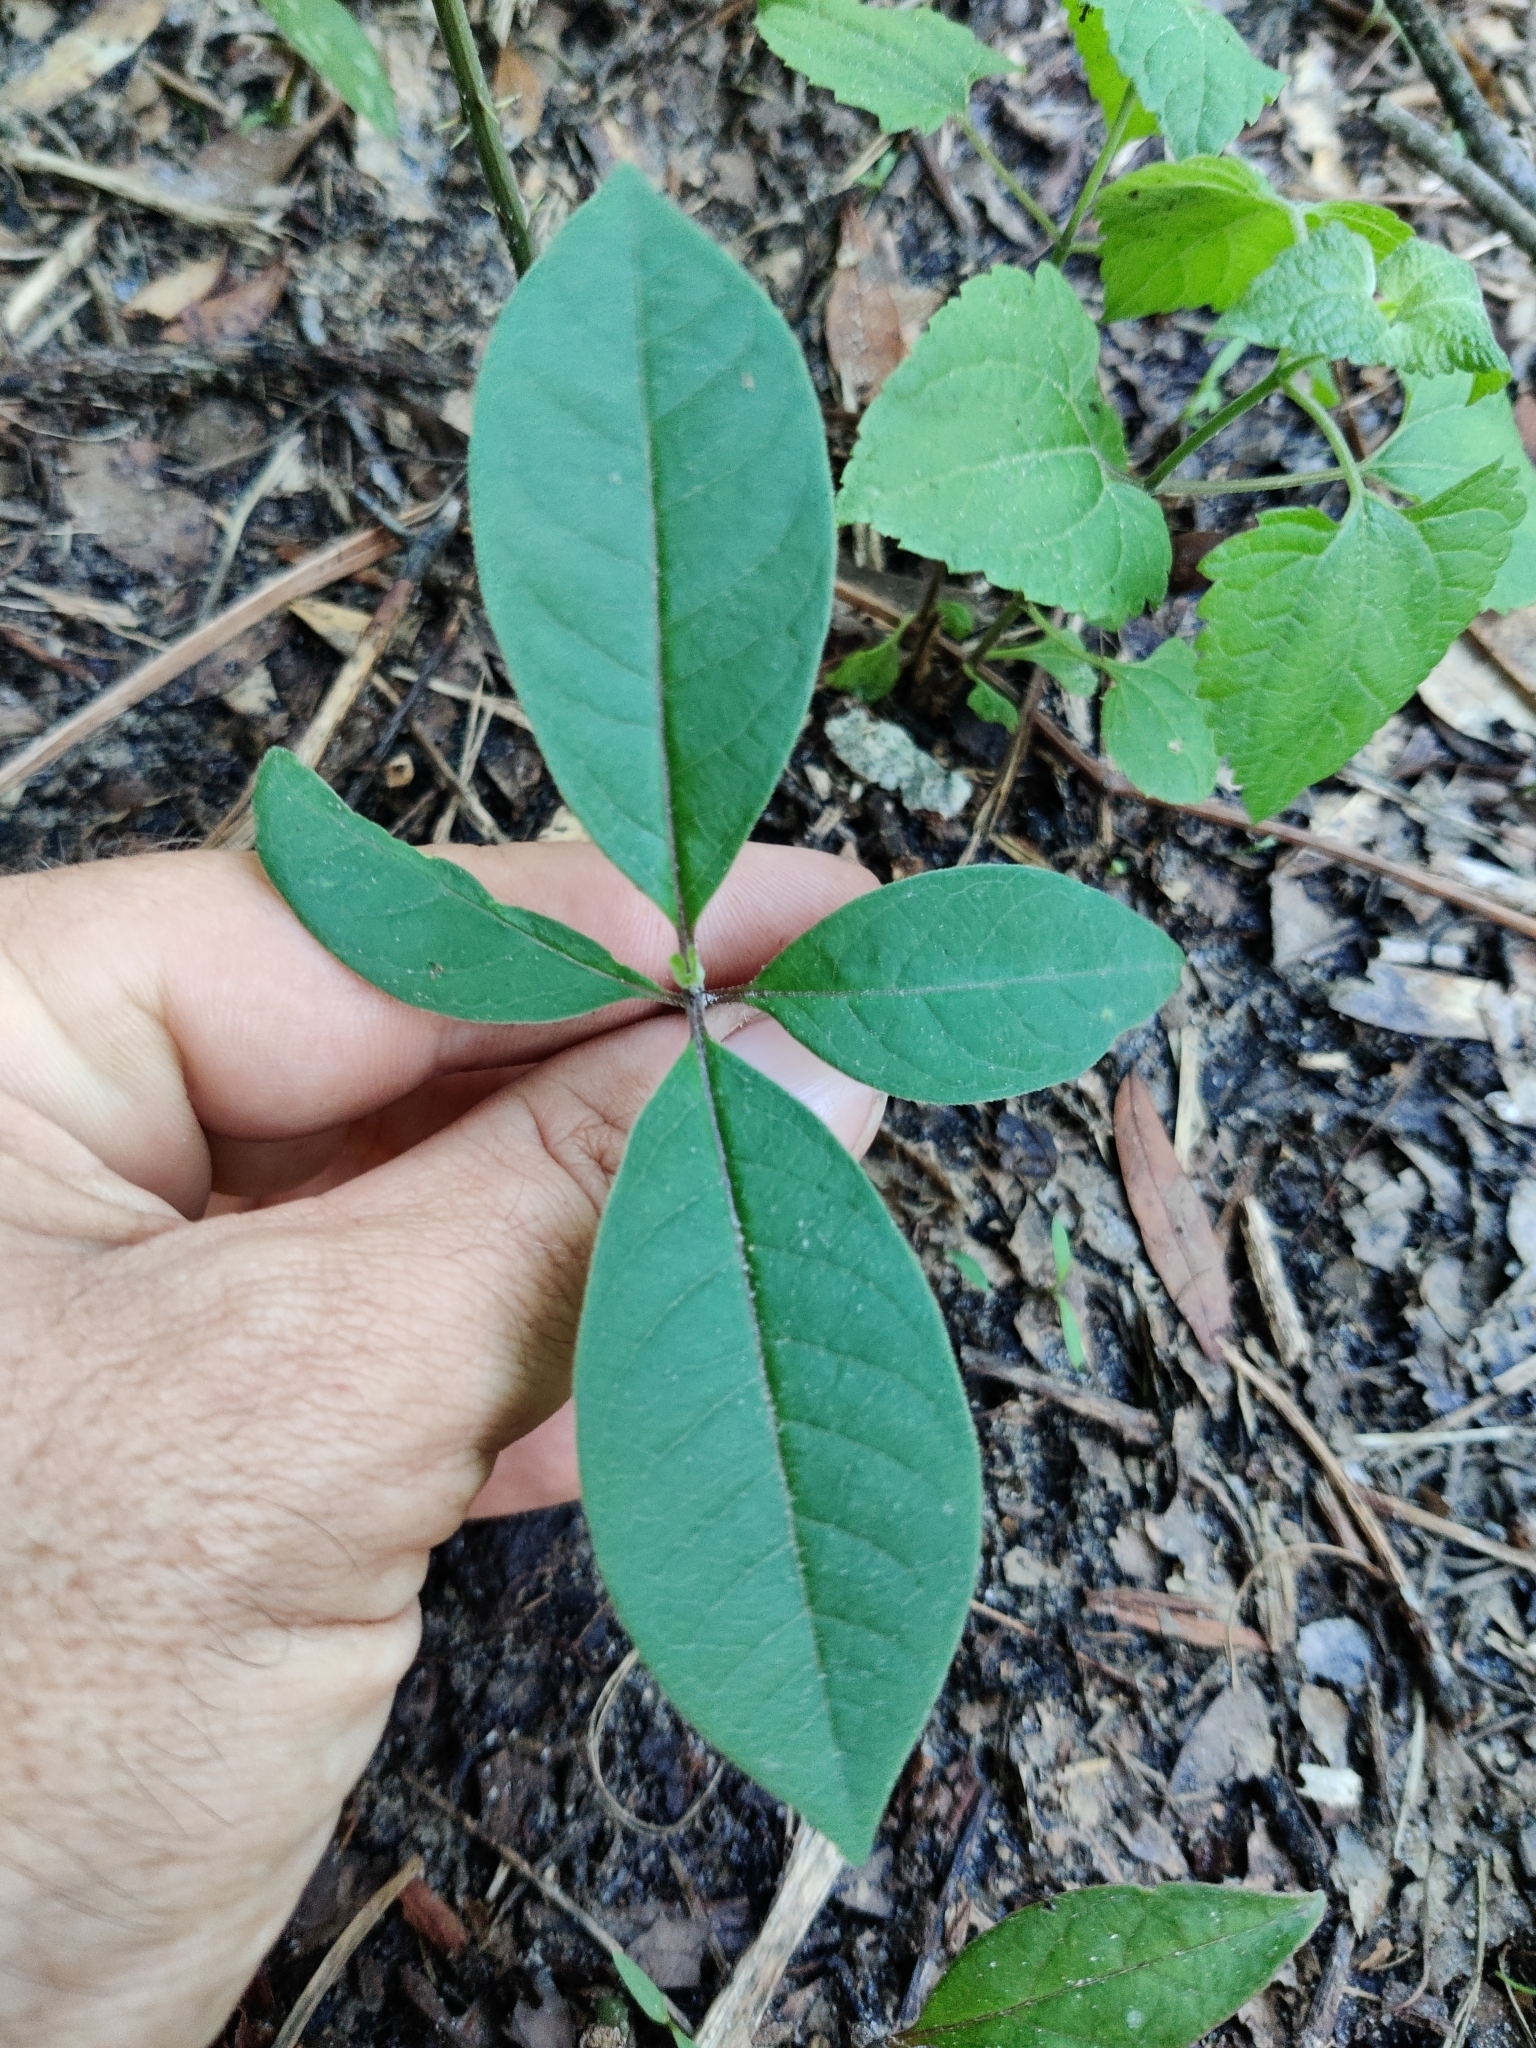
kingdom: Plantae
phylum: Tracheophyta
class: Magnoliopsida
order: Gentianales
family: Apocynaceae
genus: Asclepias
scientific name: Asclepias variegata
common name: Variegated milkweed
